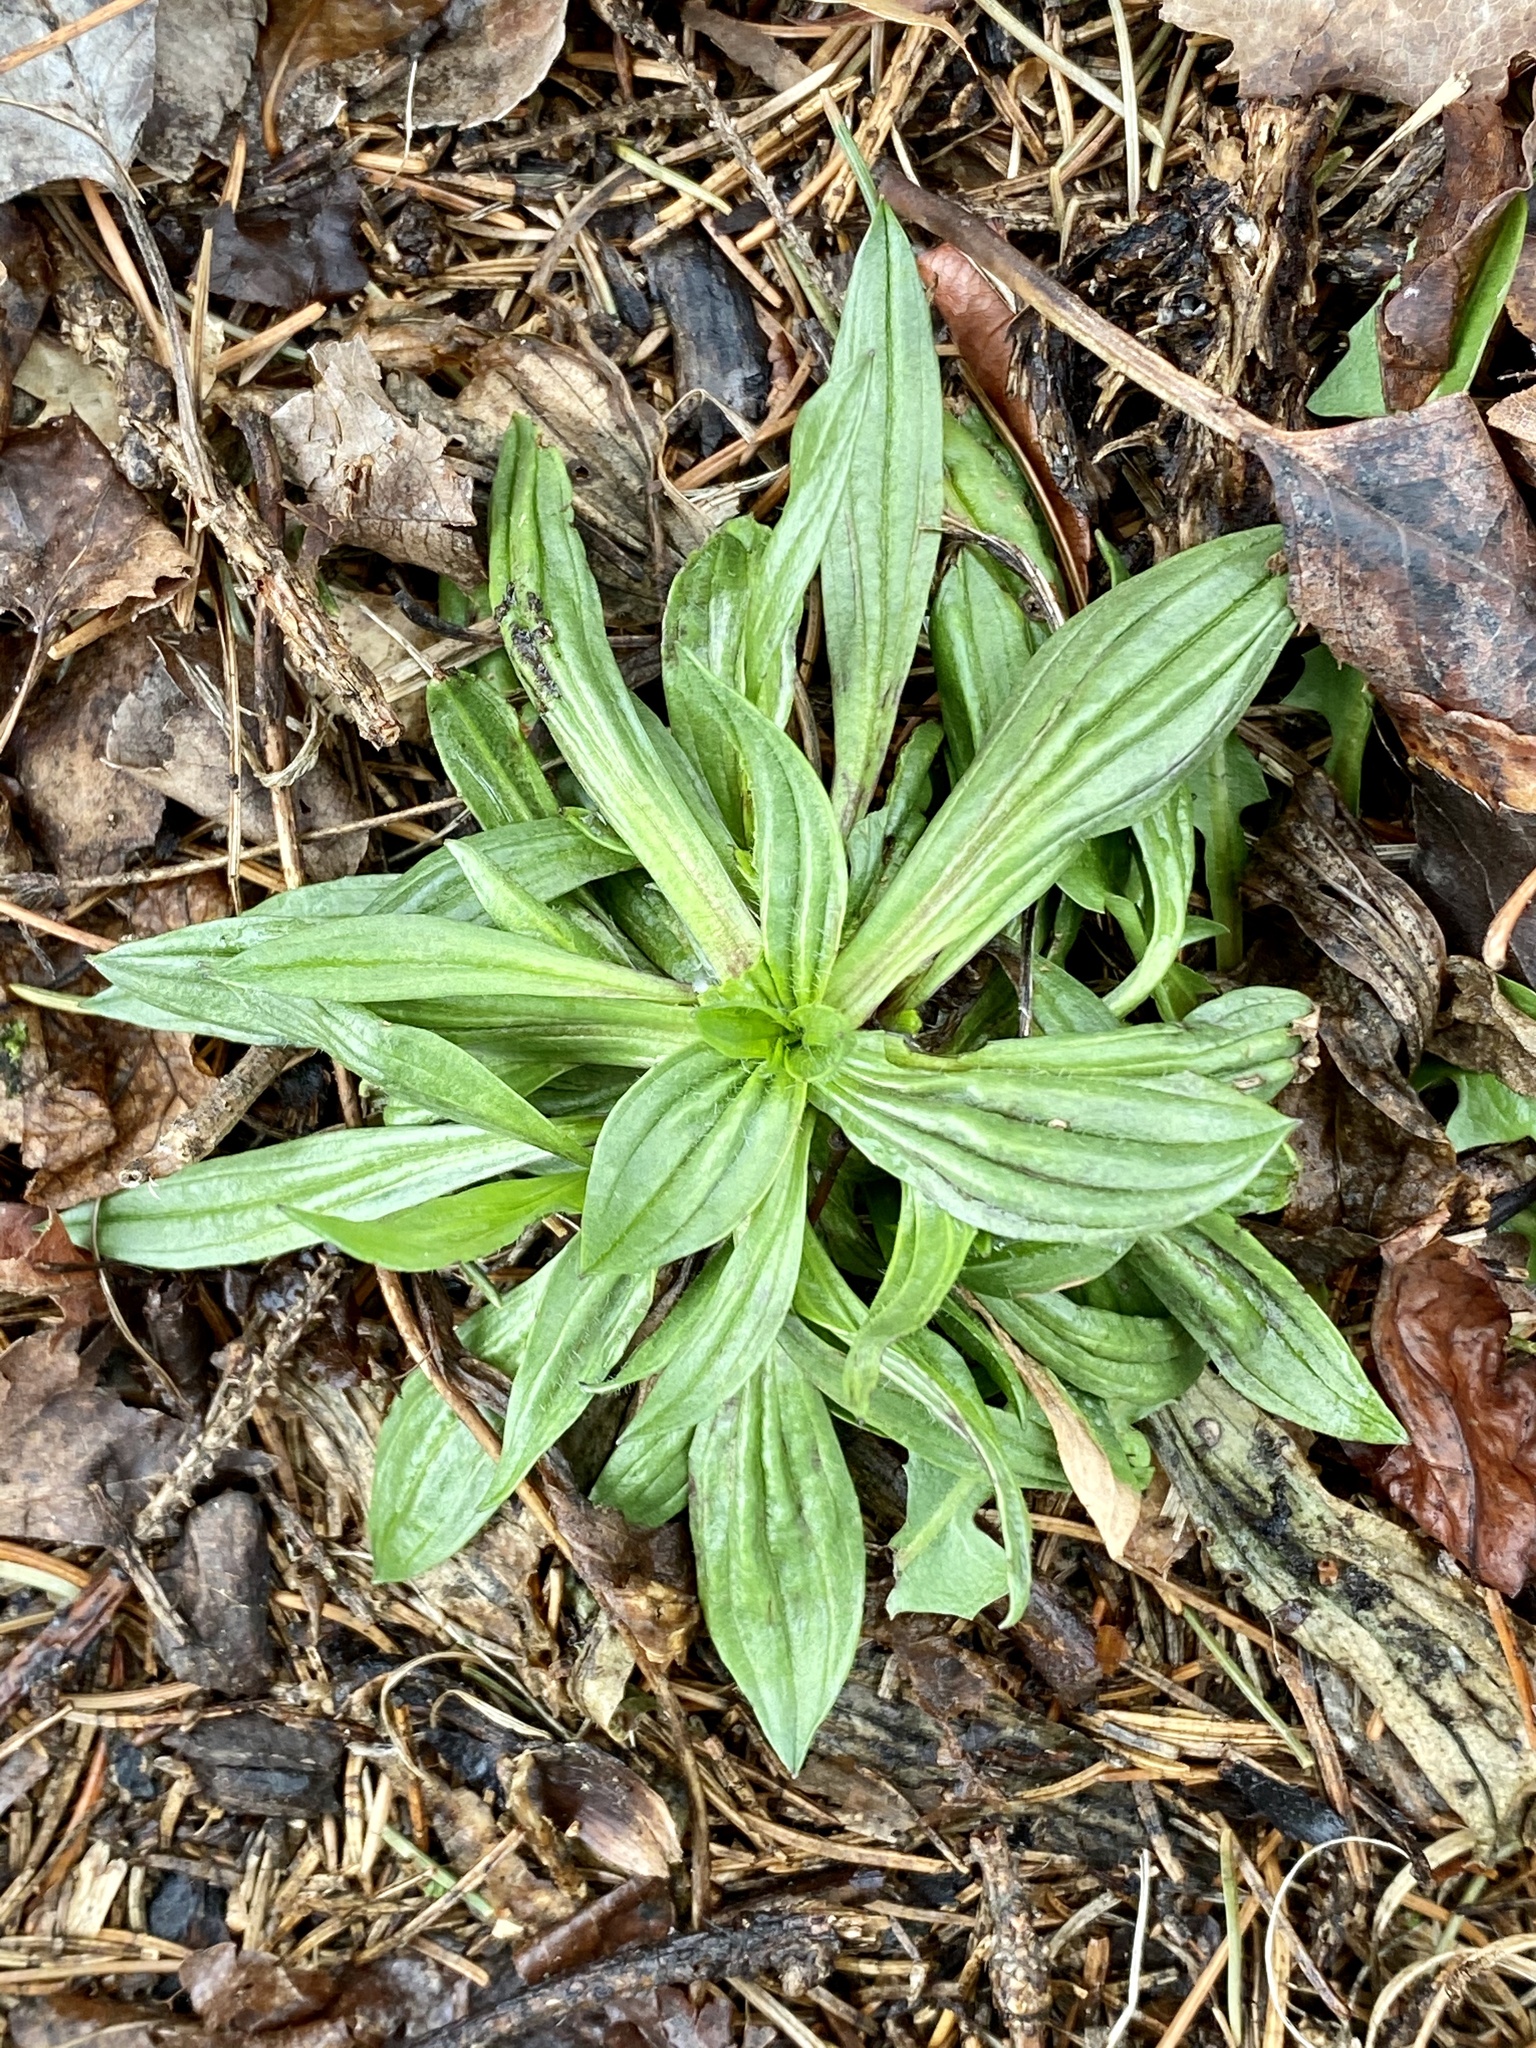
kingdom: Plantae
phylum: Tracheophyta
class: Magnoliopsida
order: Lamiales
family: Plantaginaceae
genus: Plantago
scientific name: Plantago lanceolata
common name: Ribwort plantain
